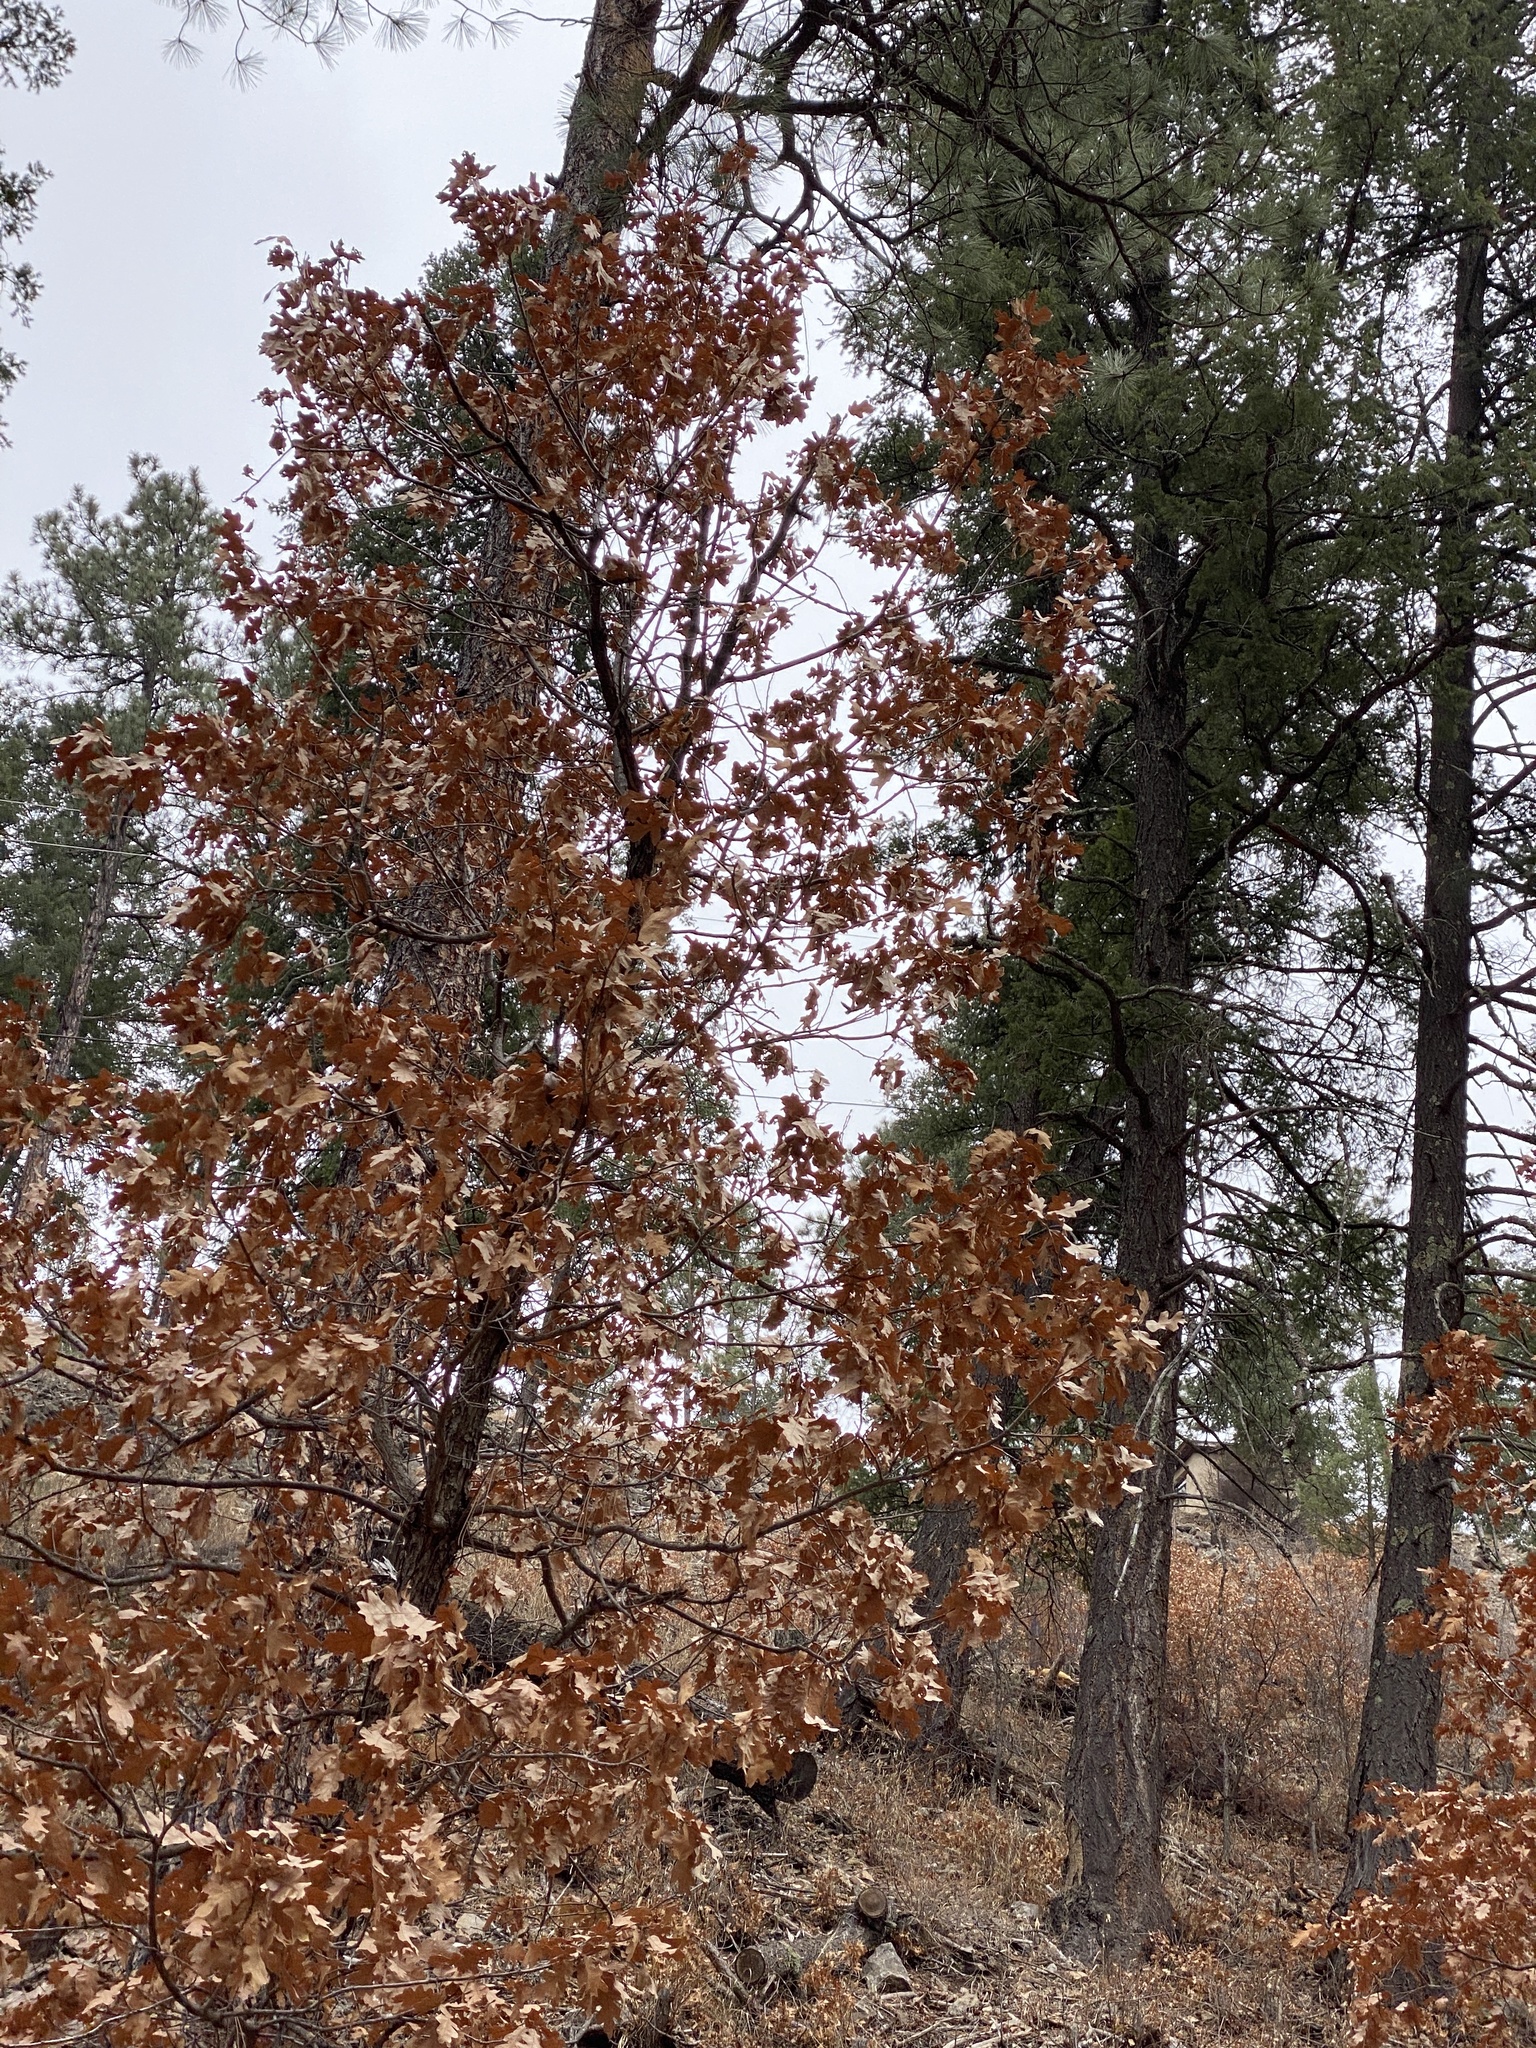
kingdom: Plantae
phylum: Tracheophyta
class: Magnoliopsida
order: Fagales
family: Fagaceae
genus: Quercus
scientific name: Quercus gambelii
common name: Gambel oak
